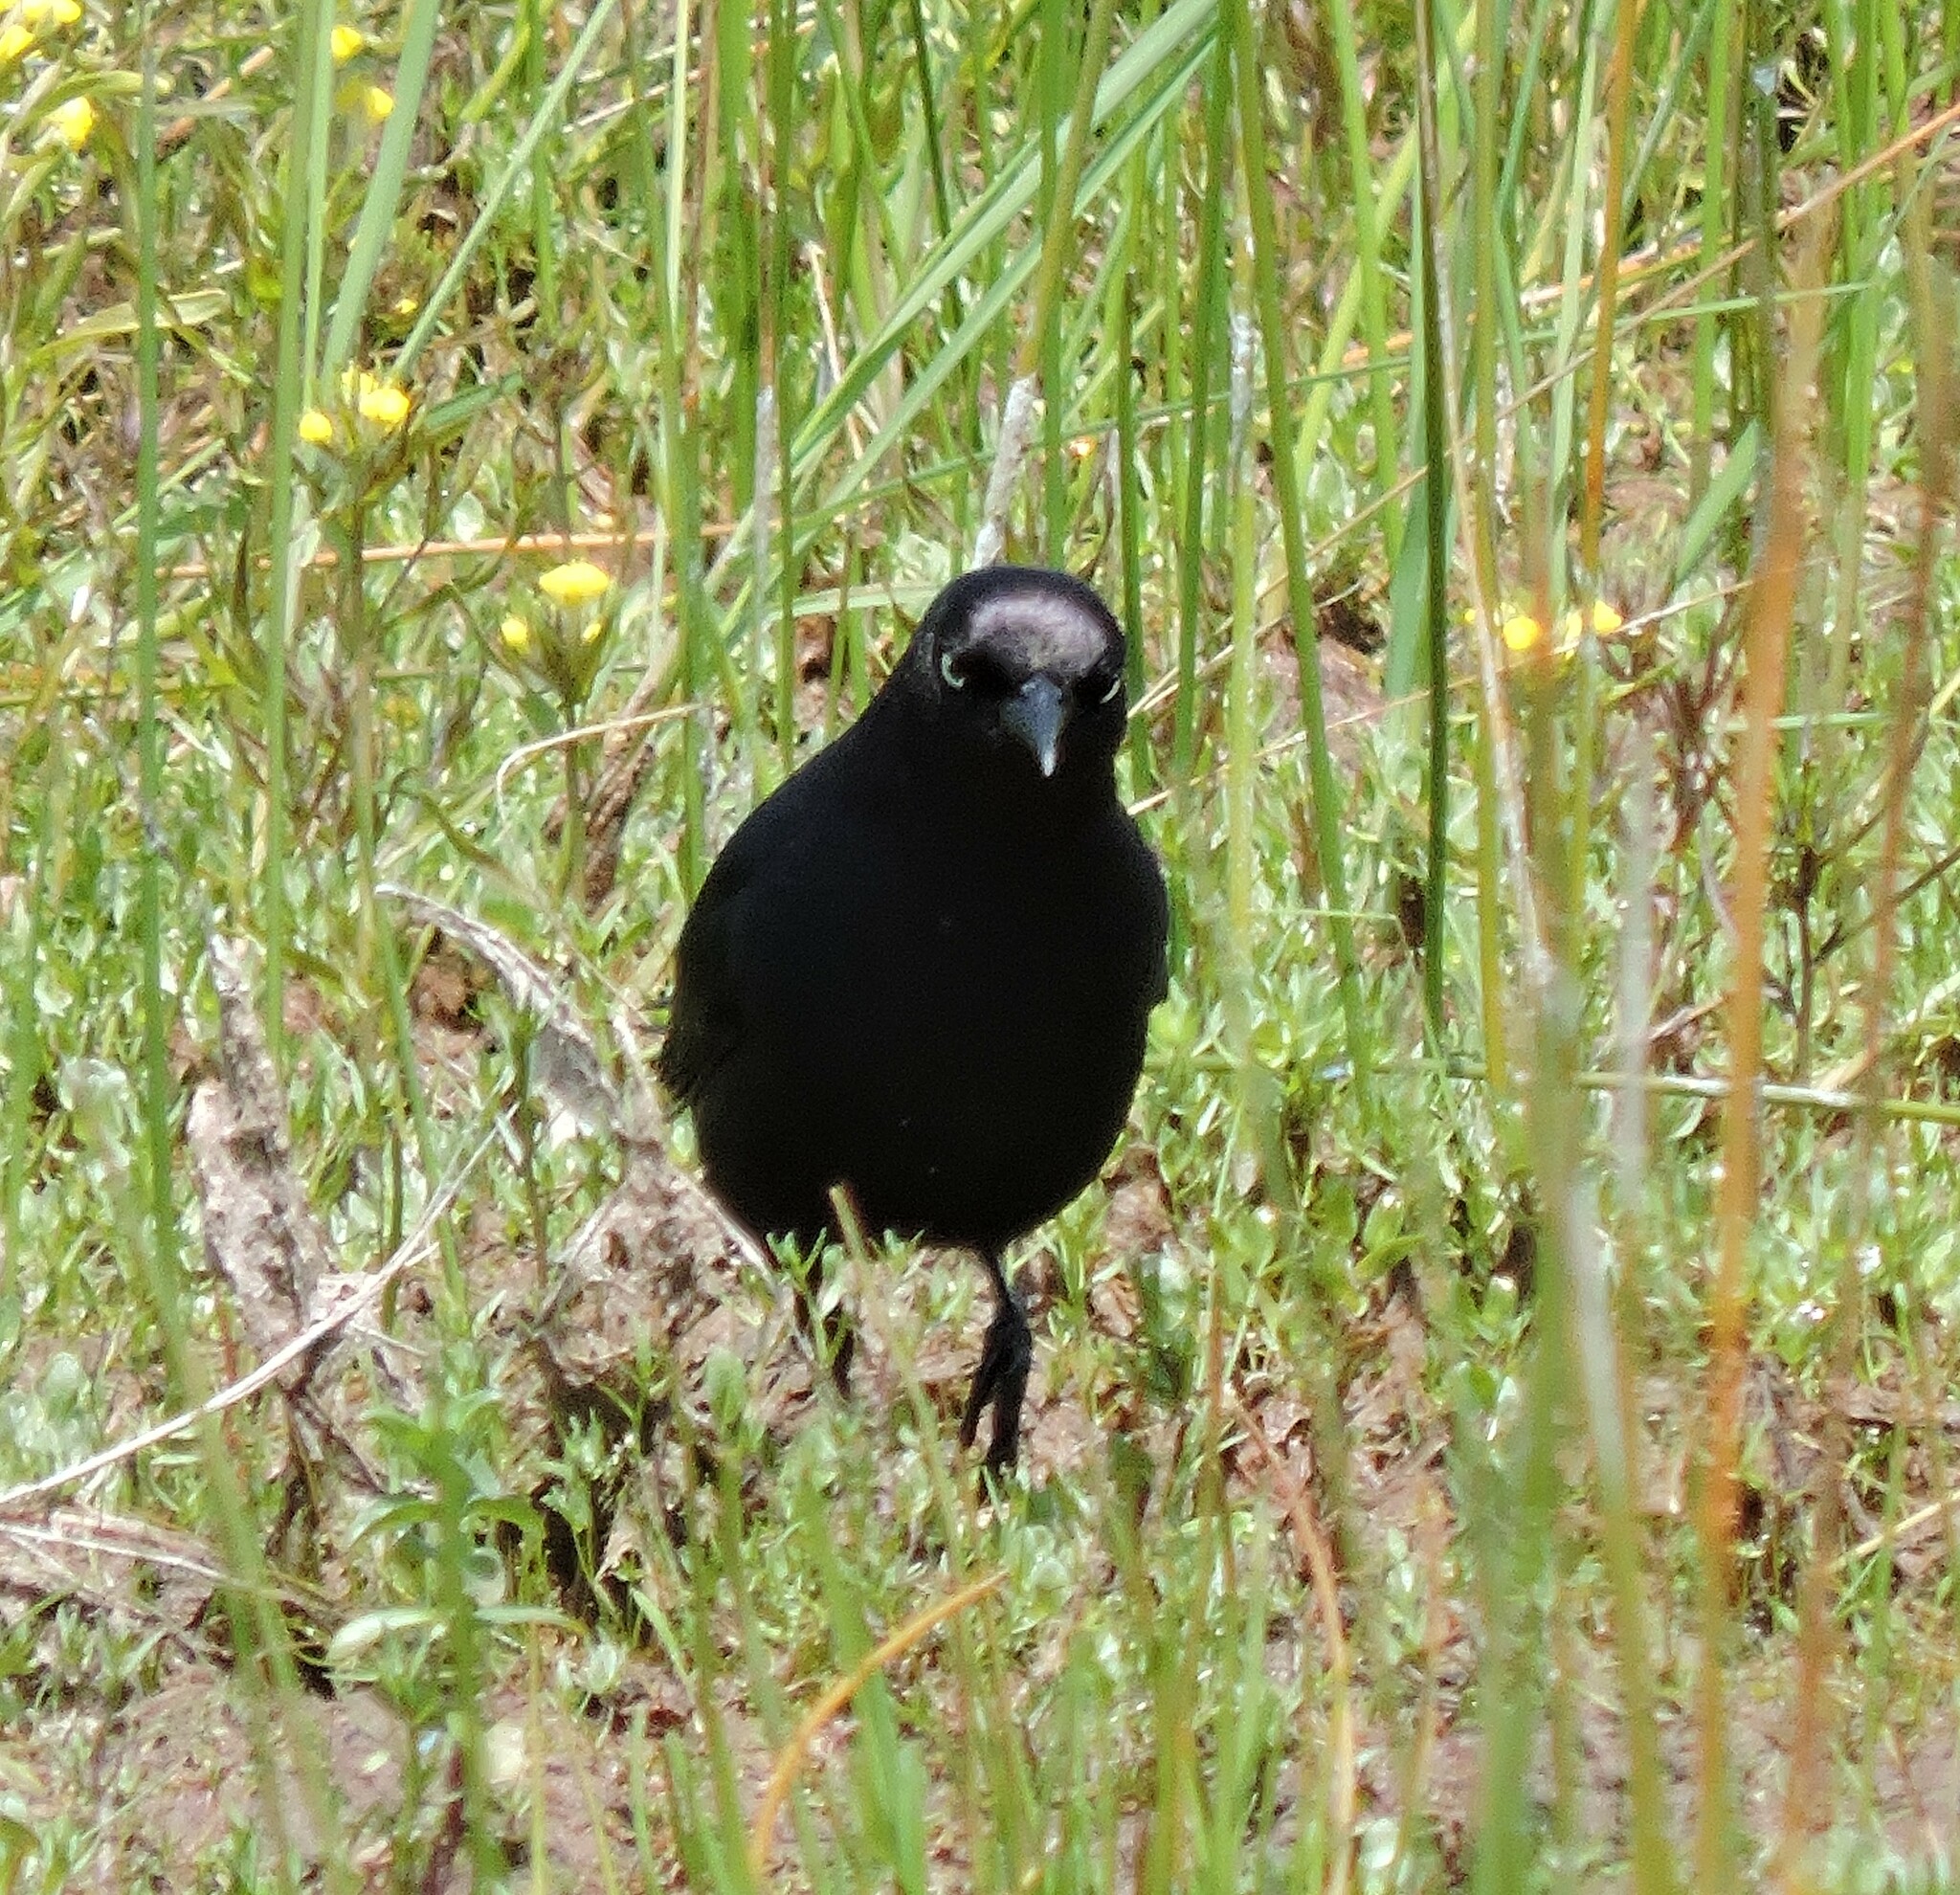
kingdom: Animalia
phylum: Chordata
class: Aves
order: Passeriformes
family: Icteridae
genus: Euphagus
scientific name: Euphagus cyanocephalus
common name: Brewer's blackbird
